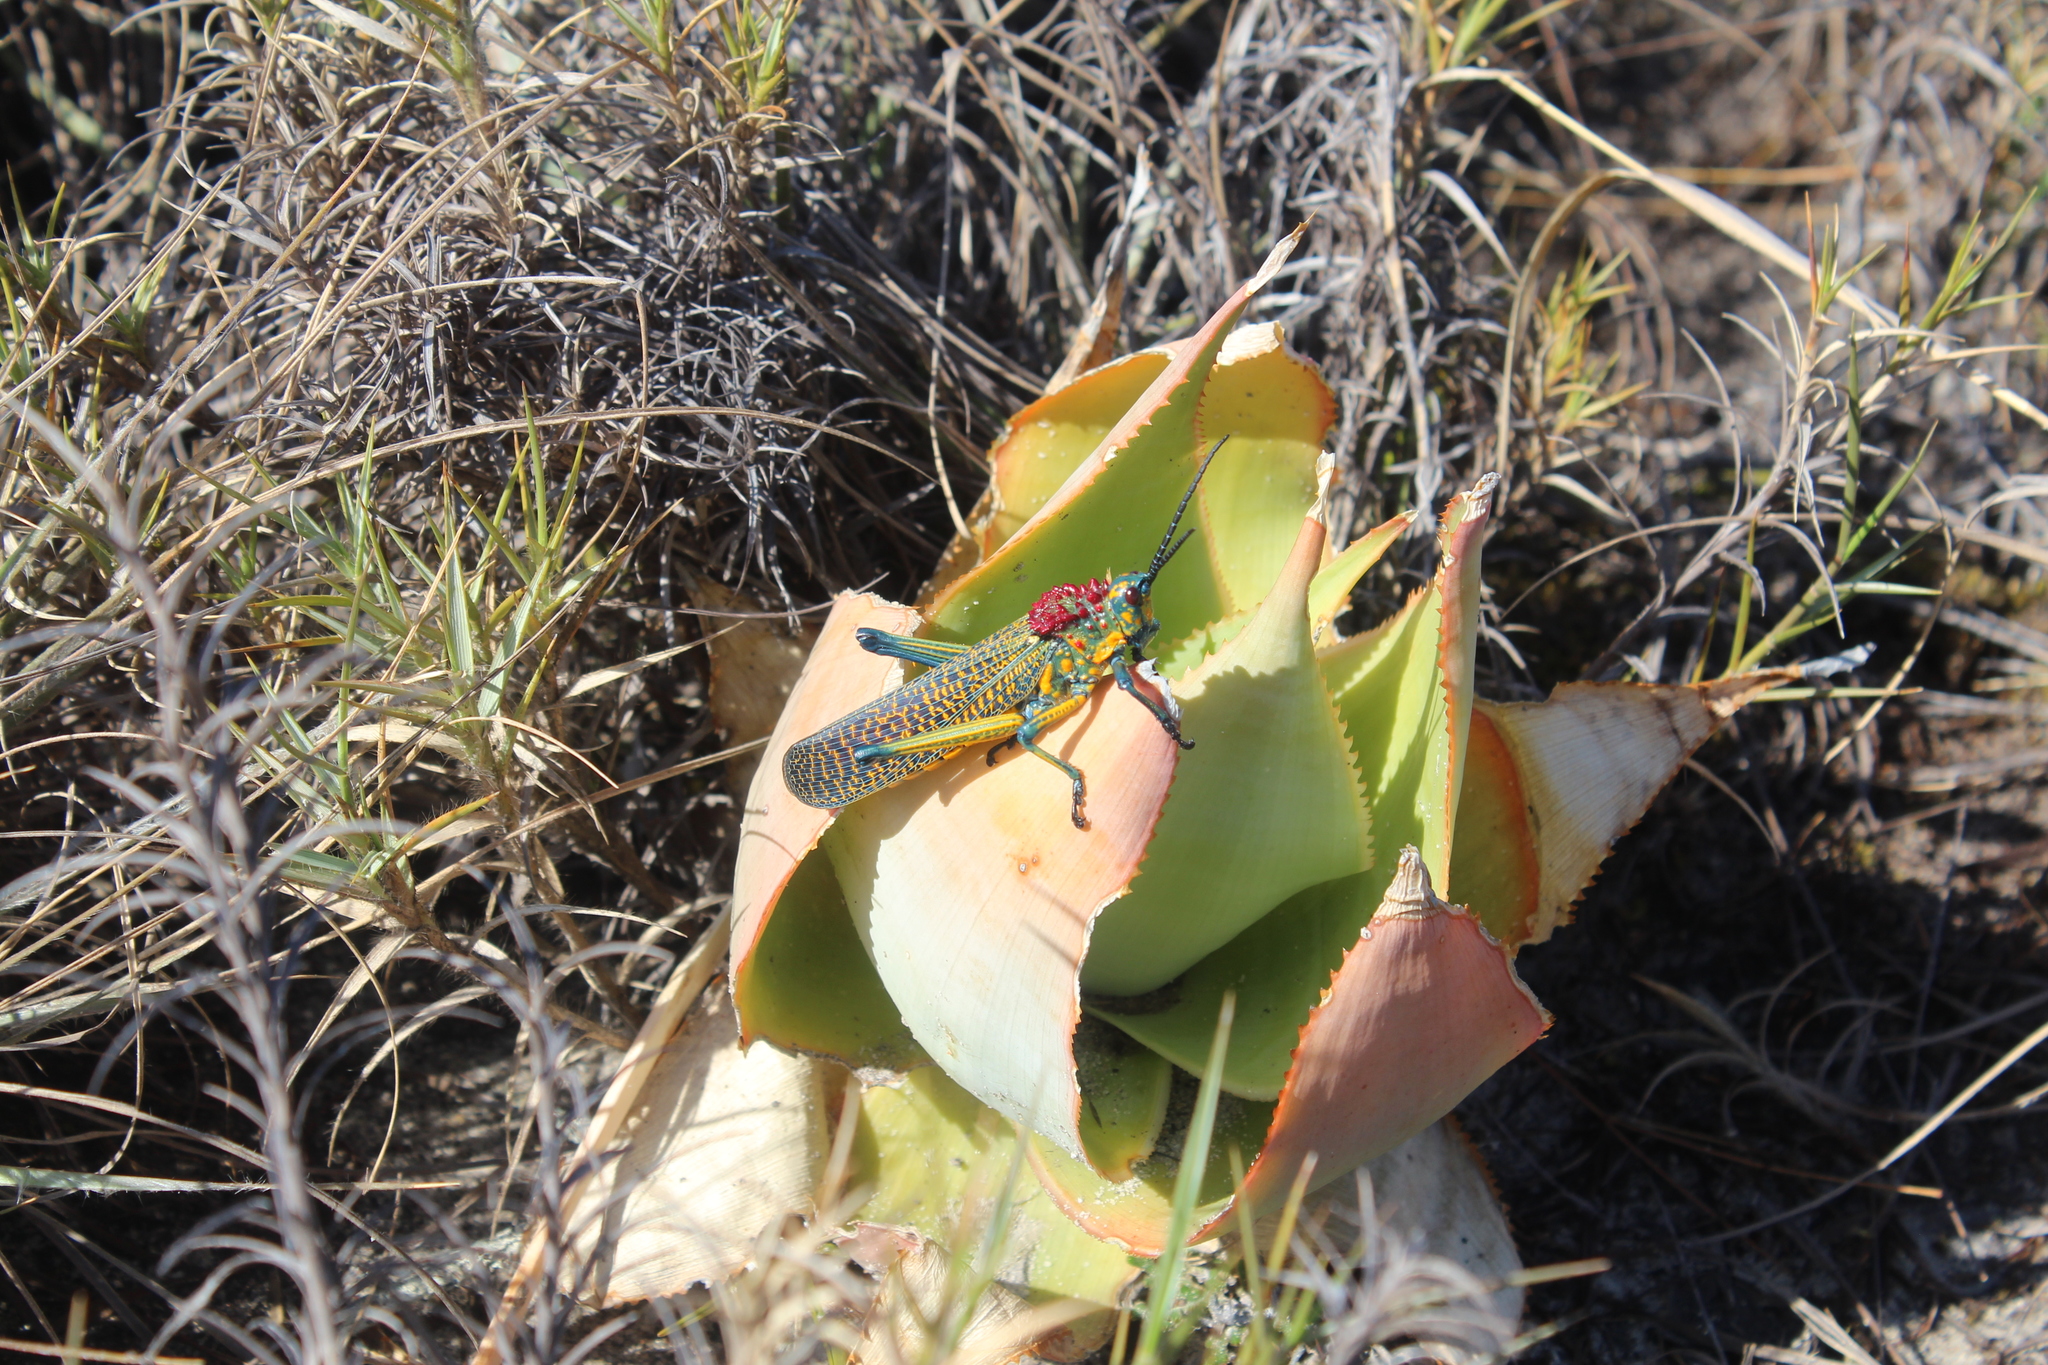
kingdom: Animalia
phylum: Arthropoda
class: Insecta
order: Orthoptera
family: Pyrgomorphidae
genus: Phymateus
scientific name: Phymateus saxosus
